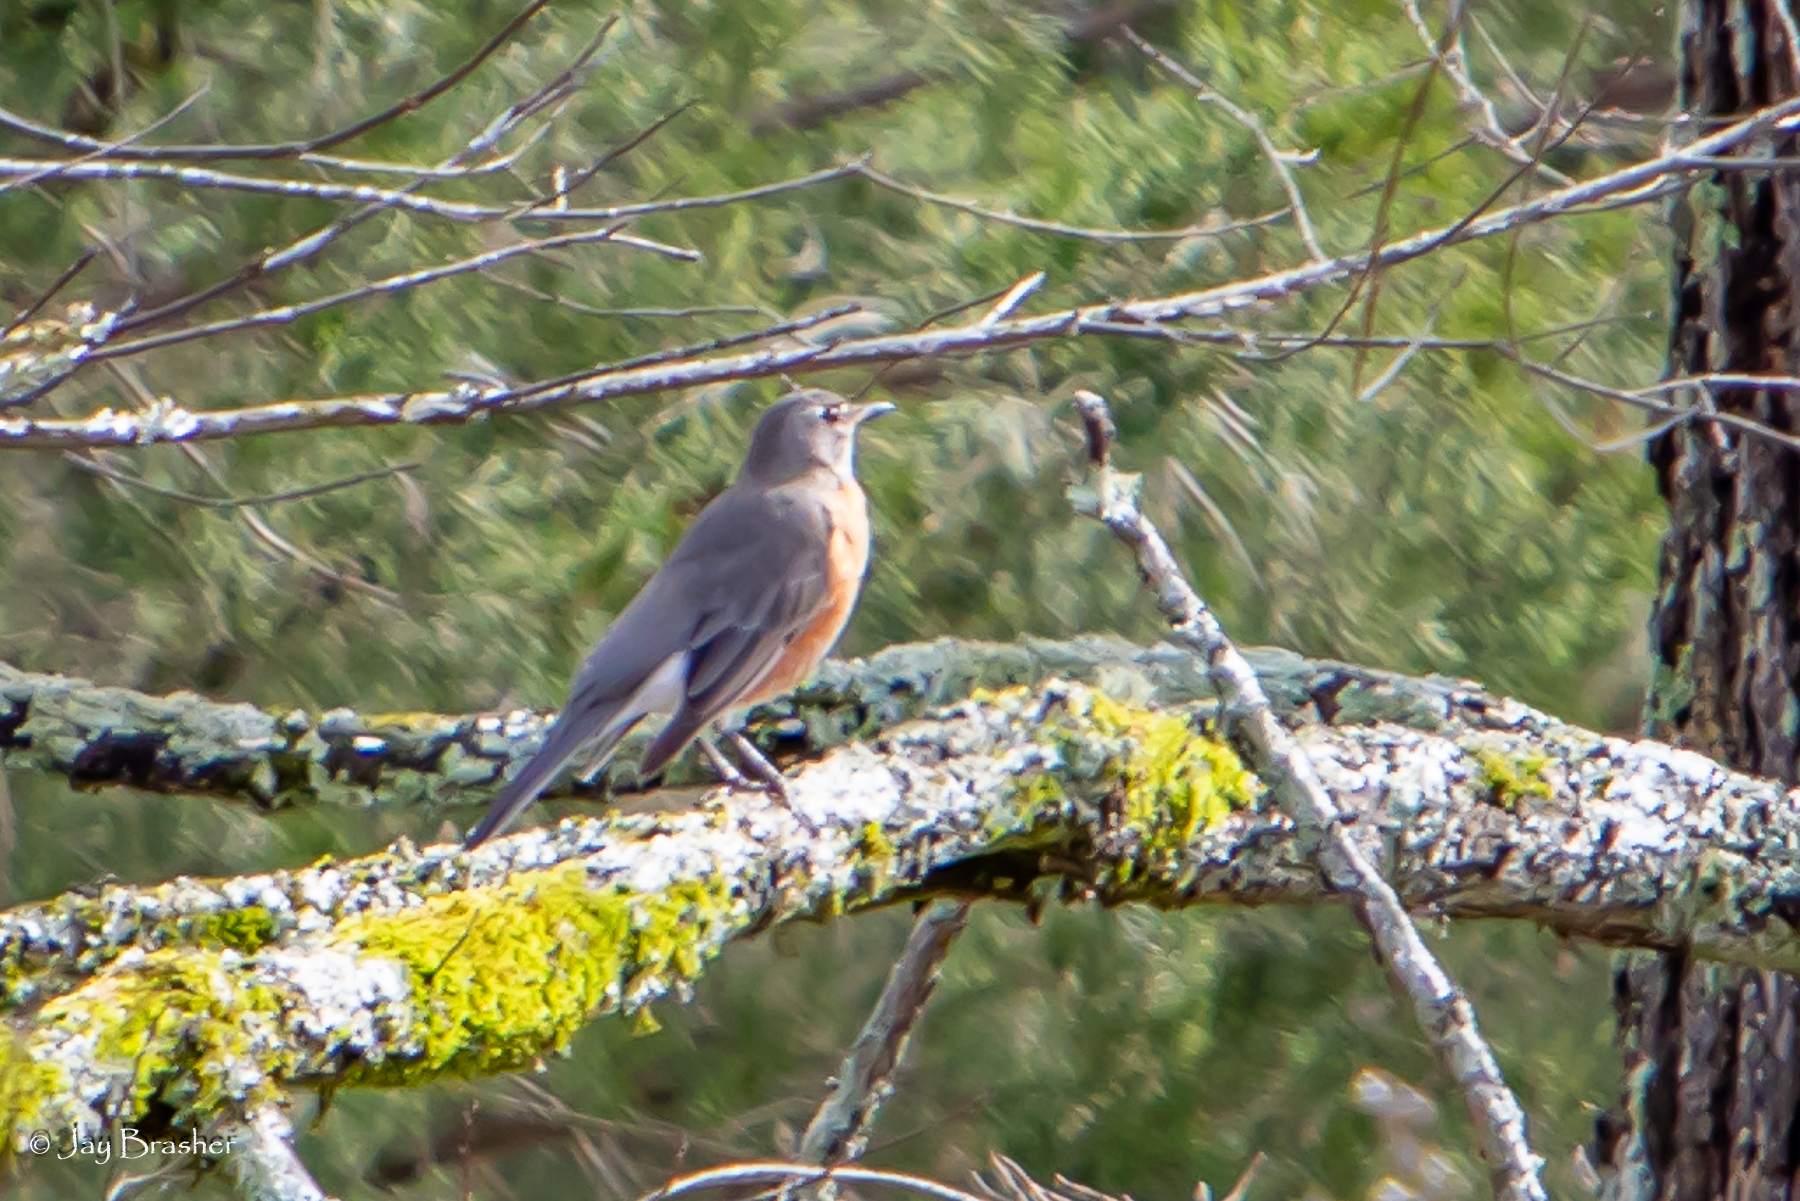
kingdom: Animalia
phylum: Chordata
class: Aves
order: Passeriformes
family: Turdidae
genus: Turdus
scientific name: Turdus migratorius
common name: American robin
